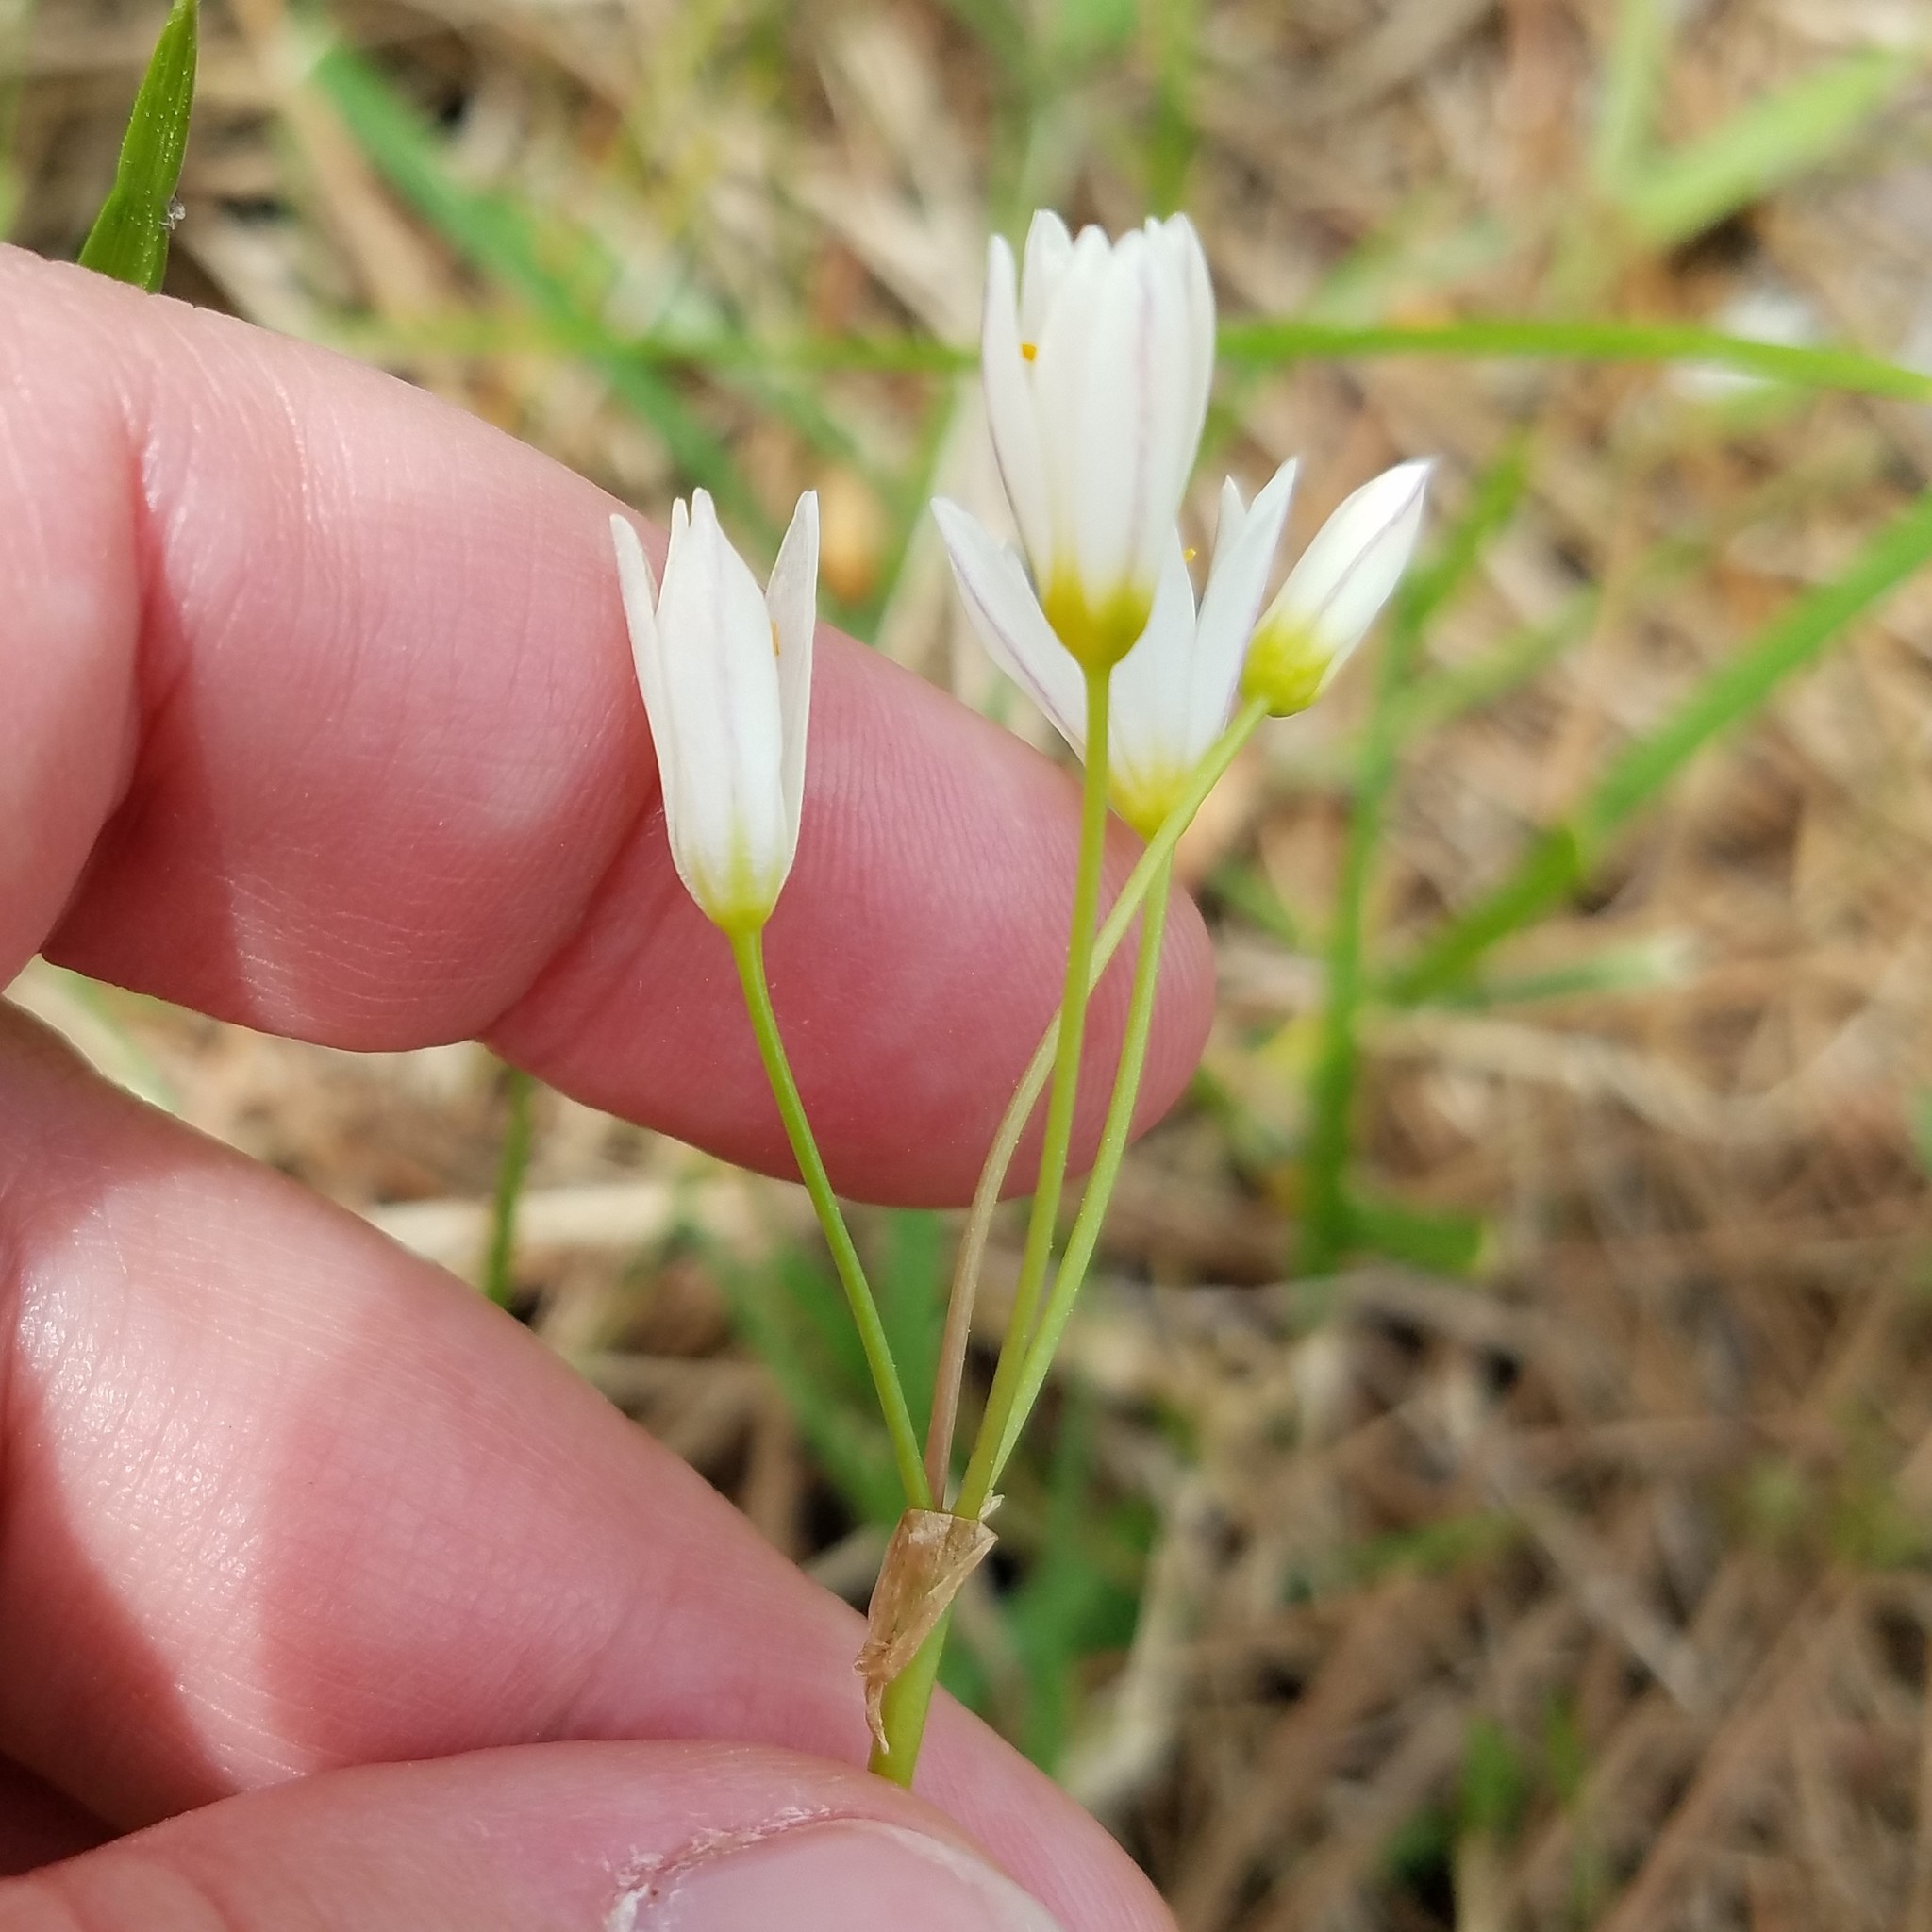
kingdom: Plantae
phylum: Tracheophyta
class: Liliopsida
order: Asparagales
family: Amaryllidaceae
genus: Nothoscordum
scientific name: Nothoscordum bivalve
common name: Crow-poison
